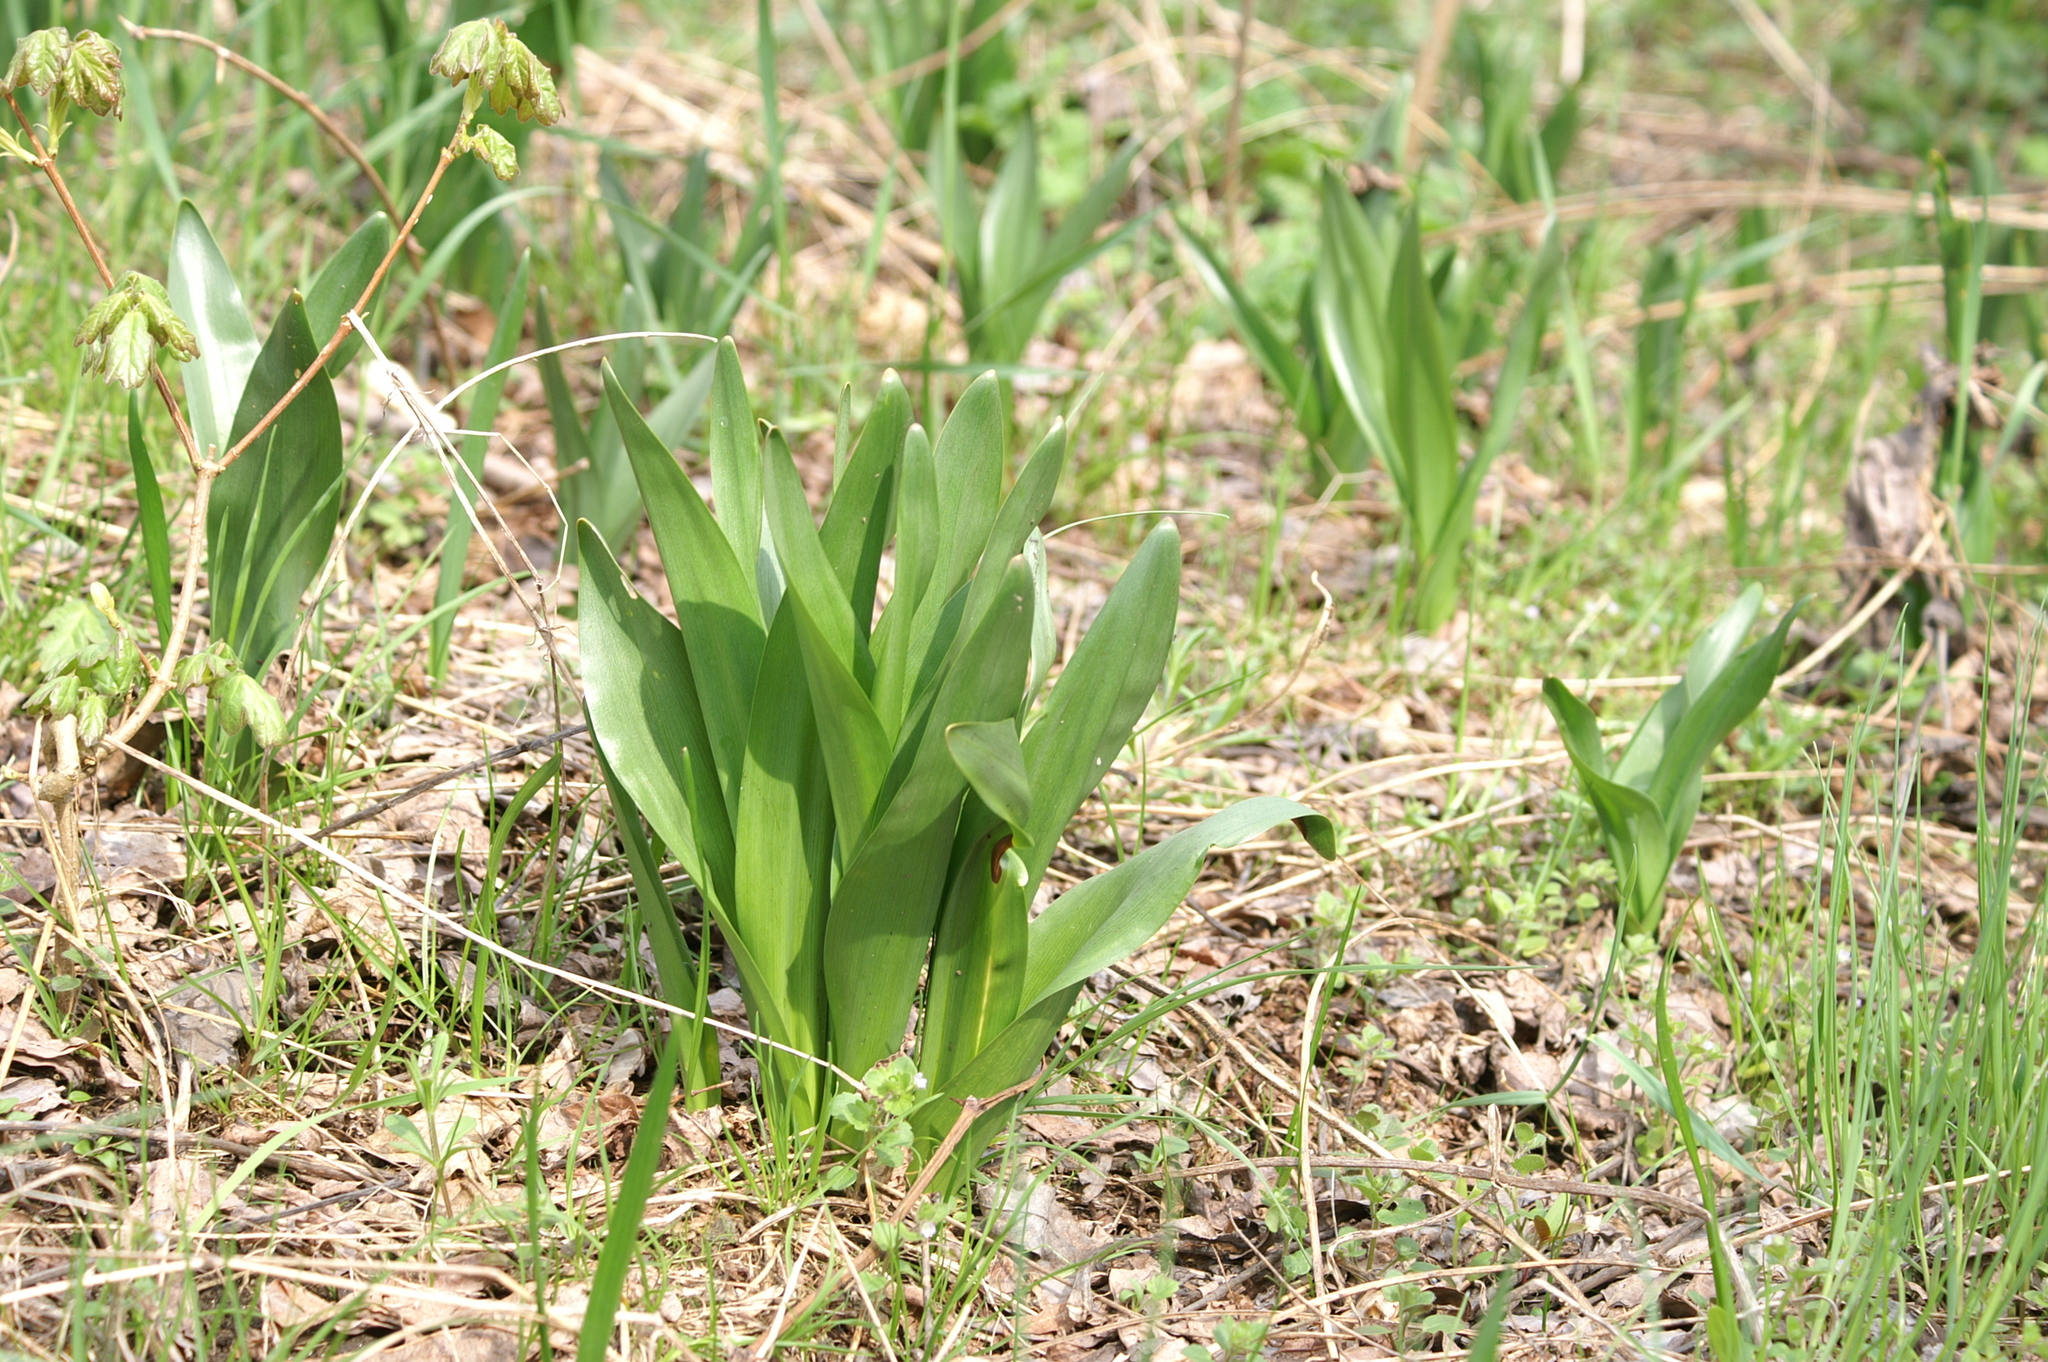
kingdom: Plantae
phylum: Tracheophyta
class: Liliopsida
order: Liliales
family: Colchicaceae
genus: Colchicum
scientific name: Colchicum autumnale
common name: Autumn crocus
